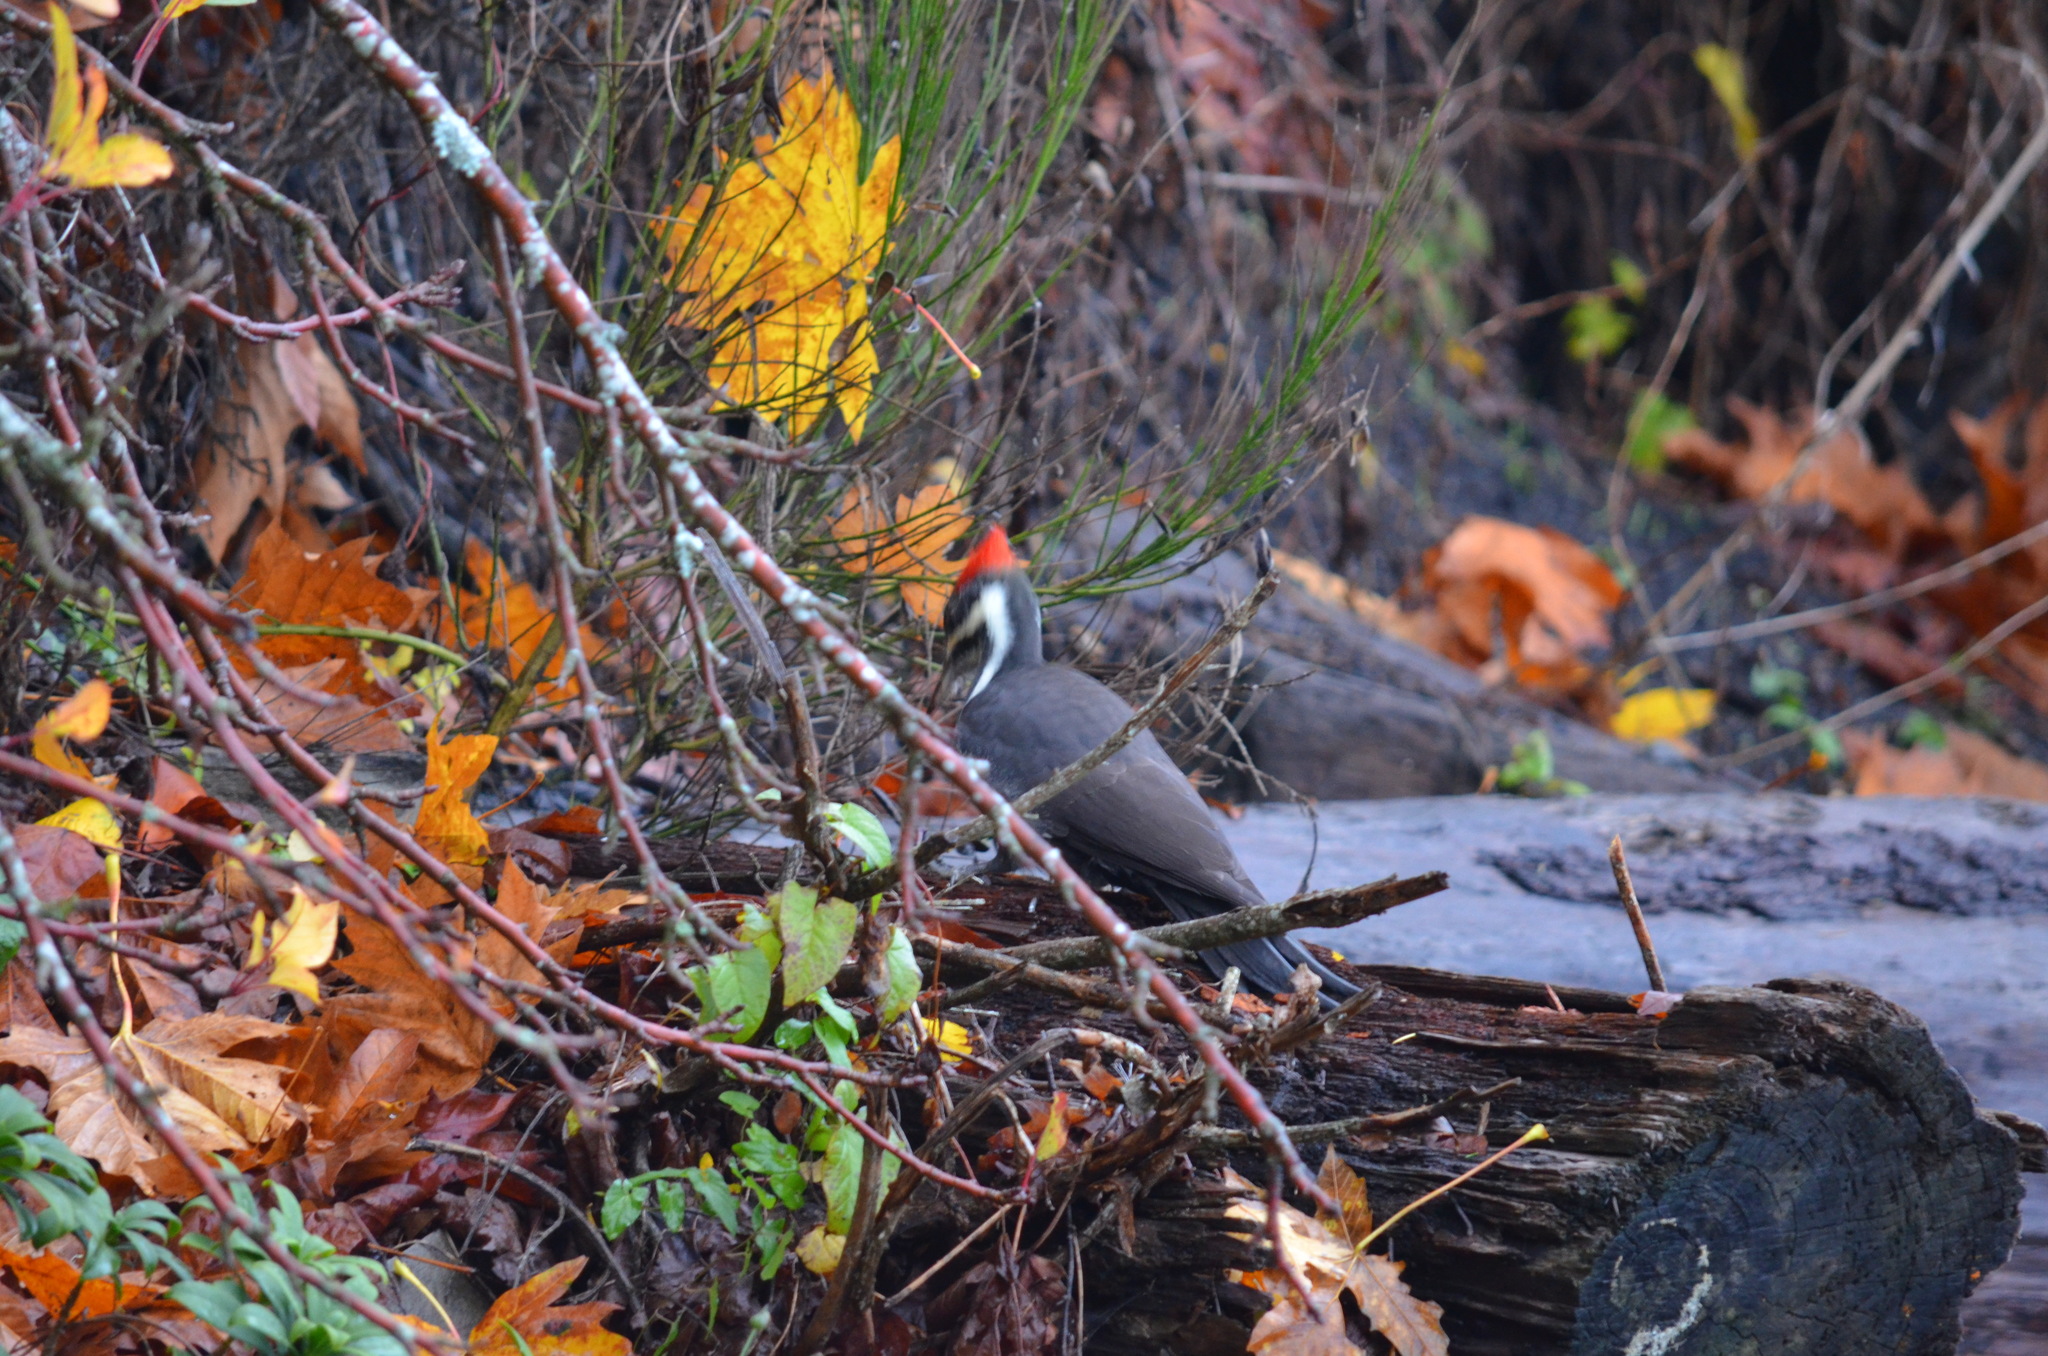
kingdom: Animalia
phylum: Chordata
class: Aves
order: Piciformes
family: Picidae
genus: Dryocopus
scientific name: Dryocopus pileatus
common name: Pileated woodpecker
